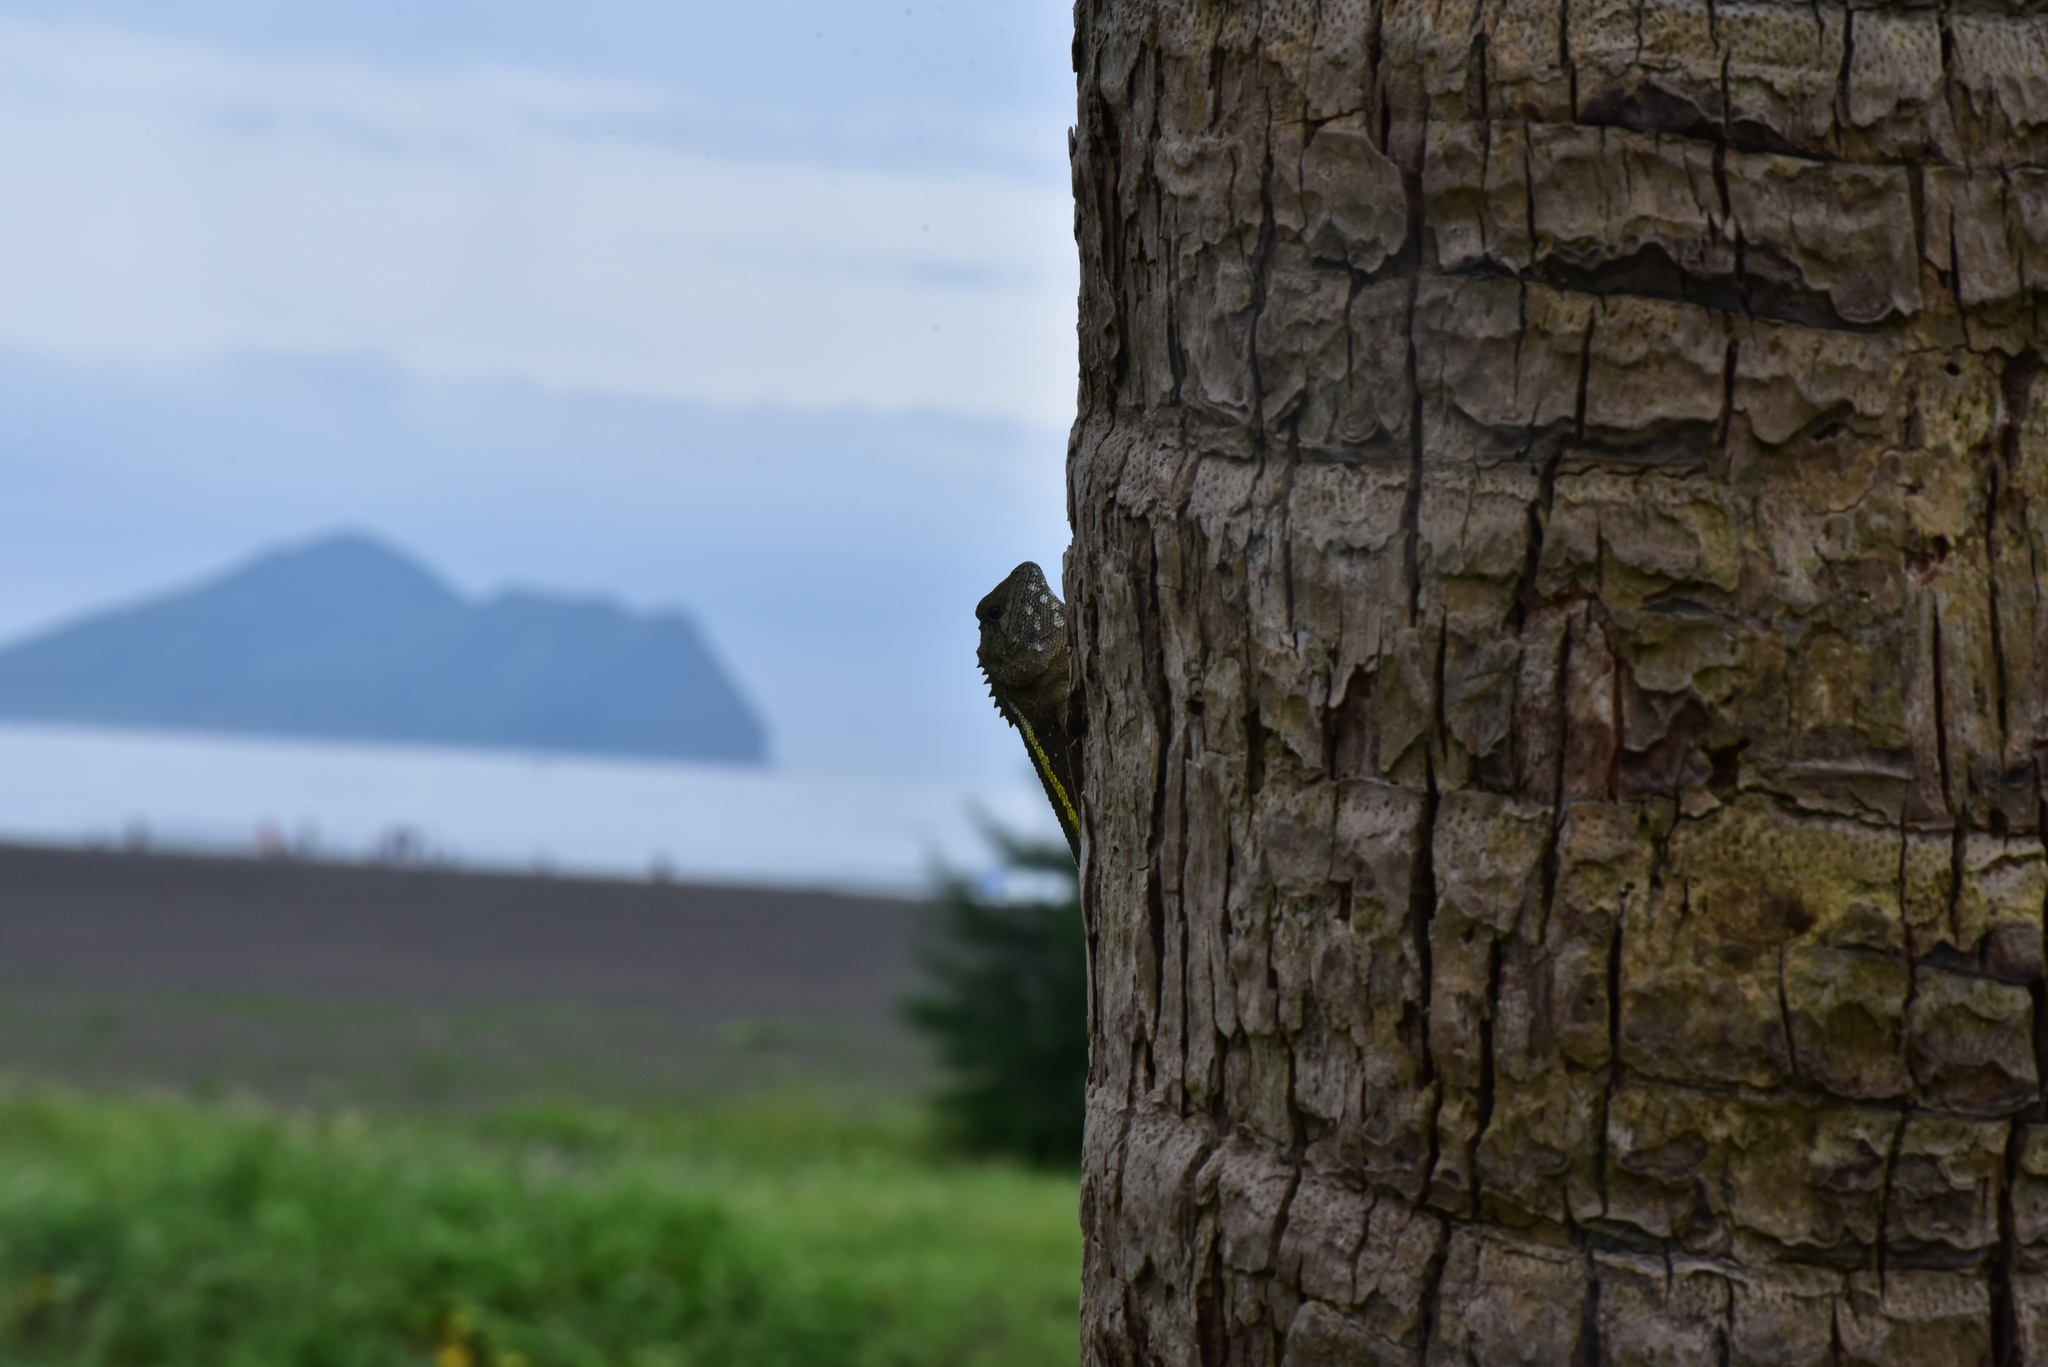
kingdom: Animalia
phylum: Chordata
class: Squamata
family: Agamidae
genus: Diploderma
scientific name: Diploderma swinhonis
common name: Taiwan japalure
